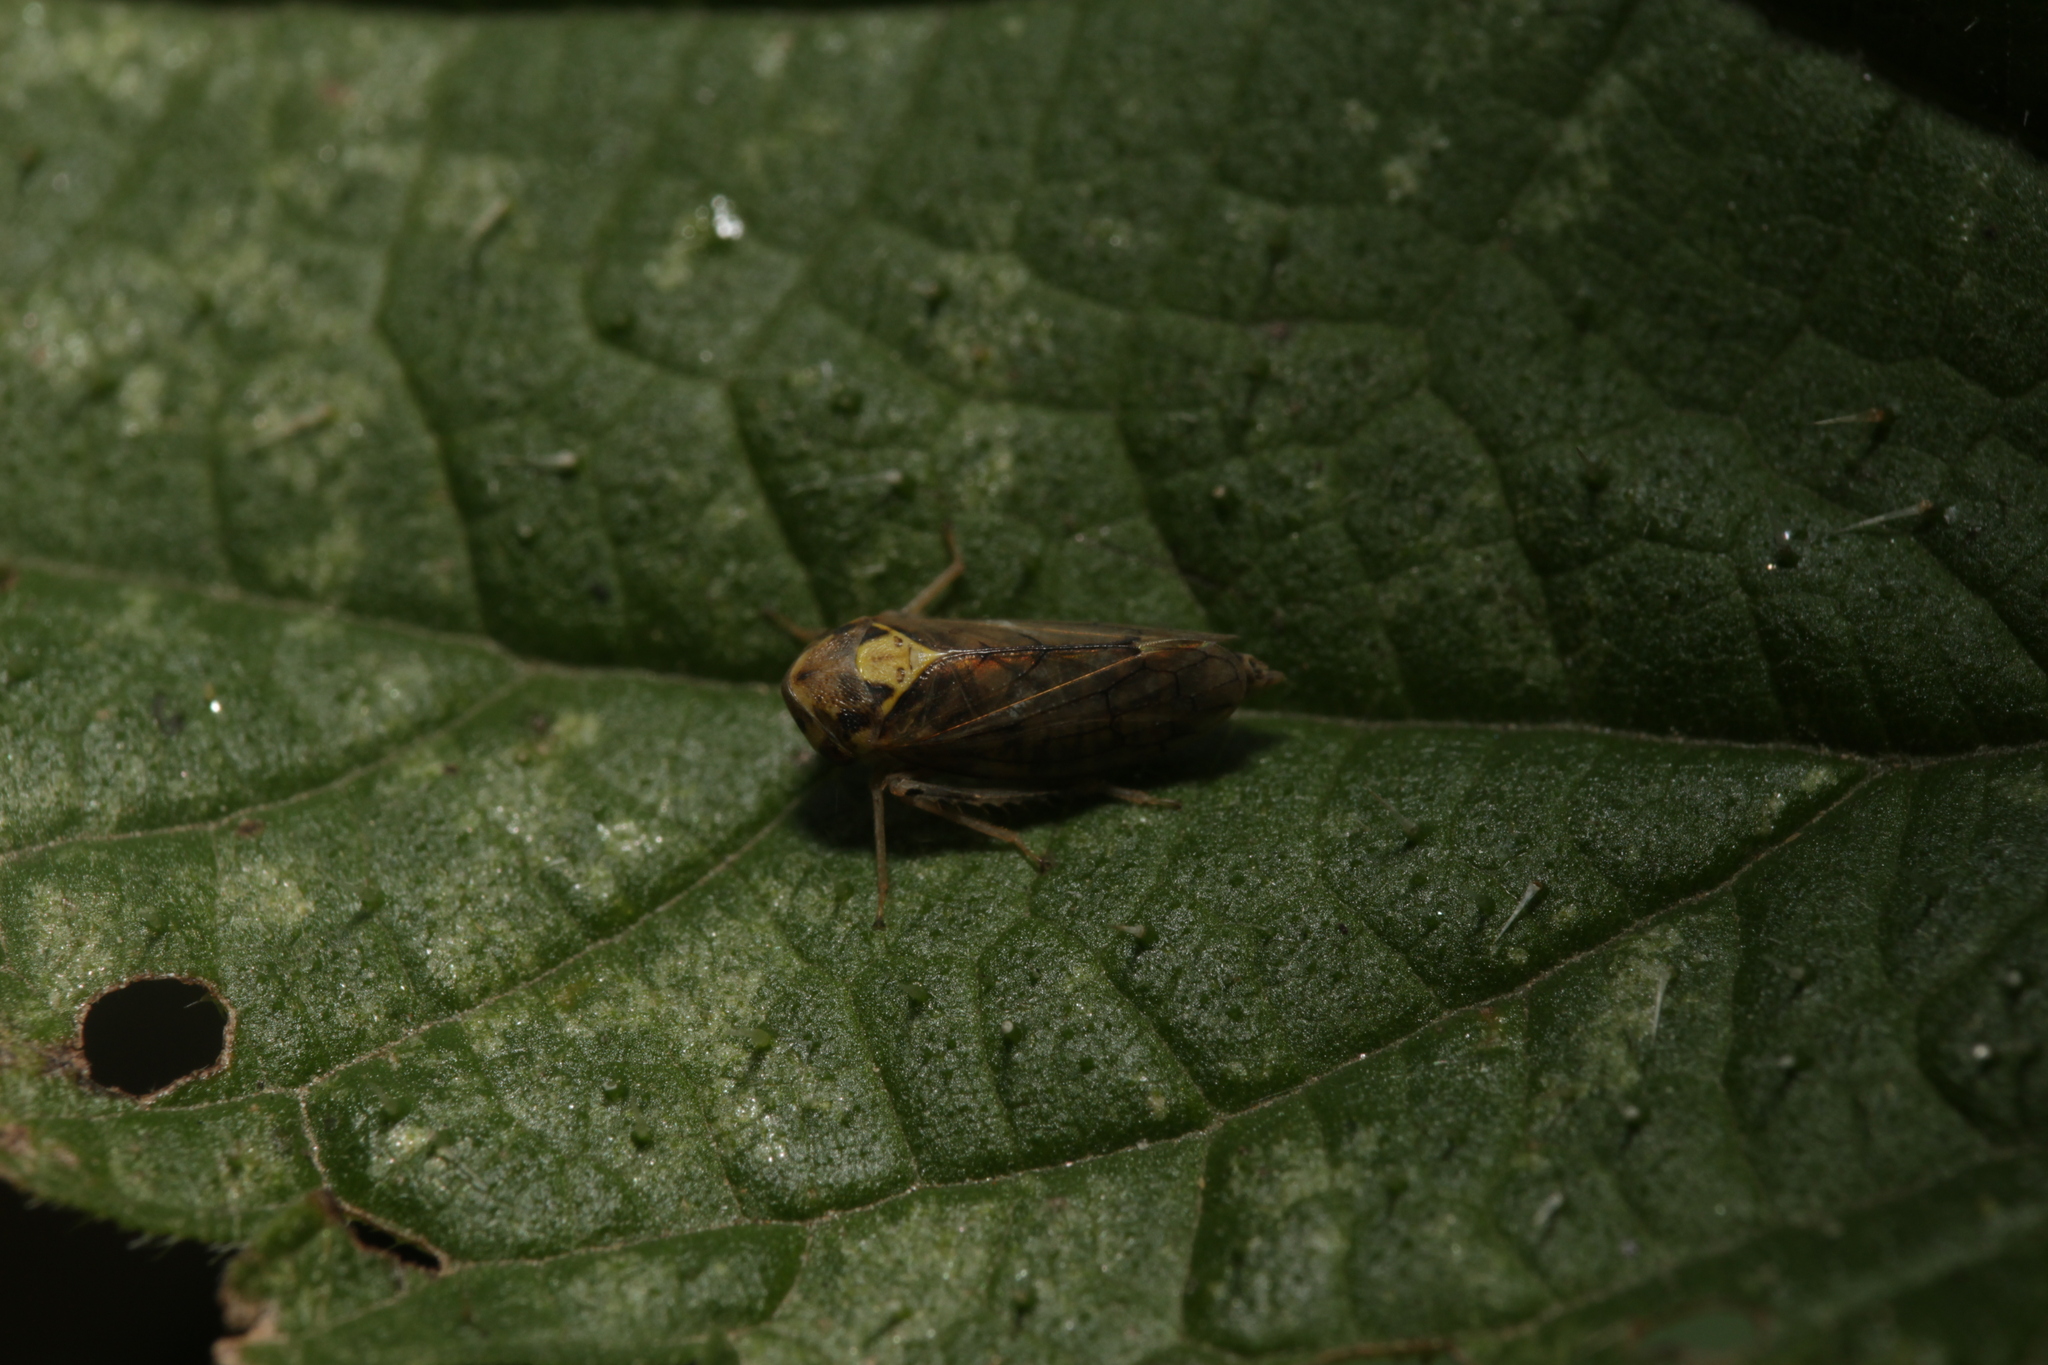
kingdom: Animalia
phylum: Arthropoda
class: Insecta
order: Hemiptera
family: Cicadellidae
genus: Macropsis
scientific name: Macropsis scutellata
